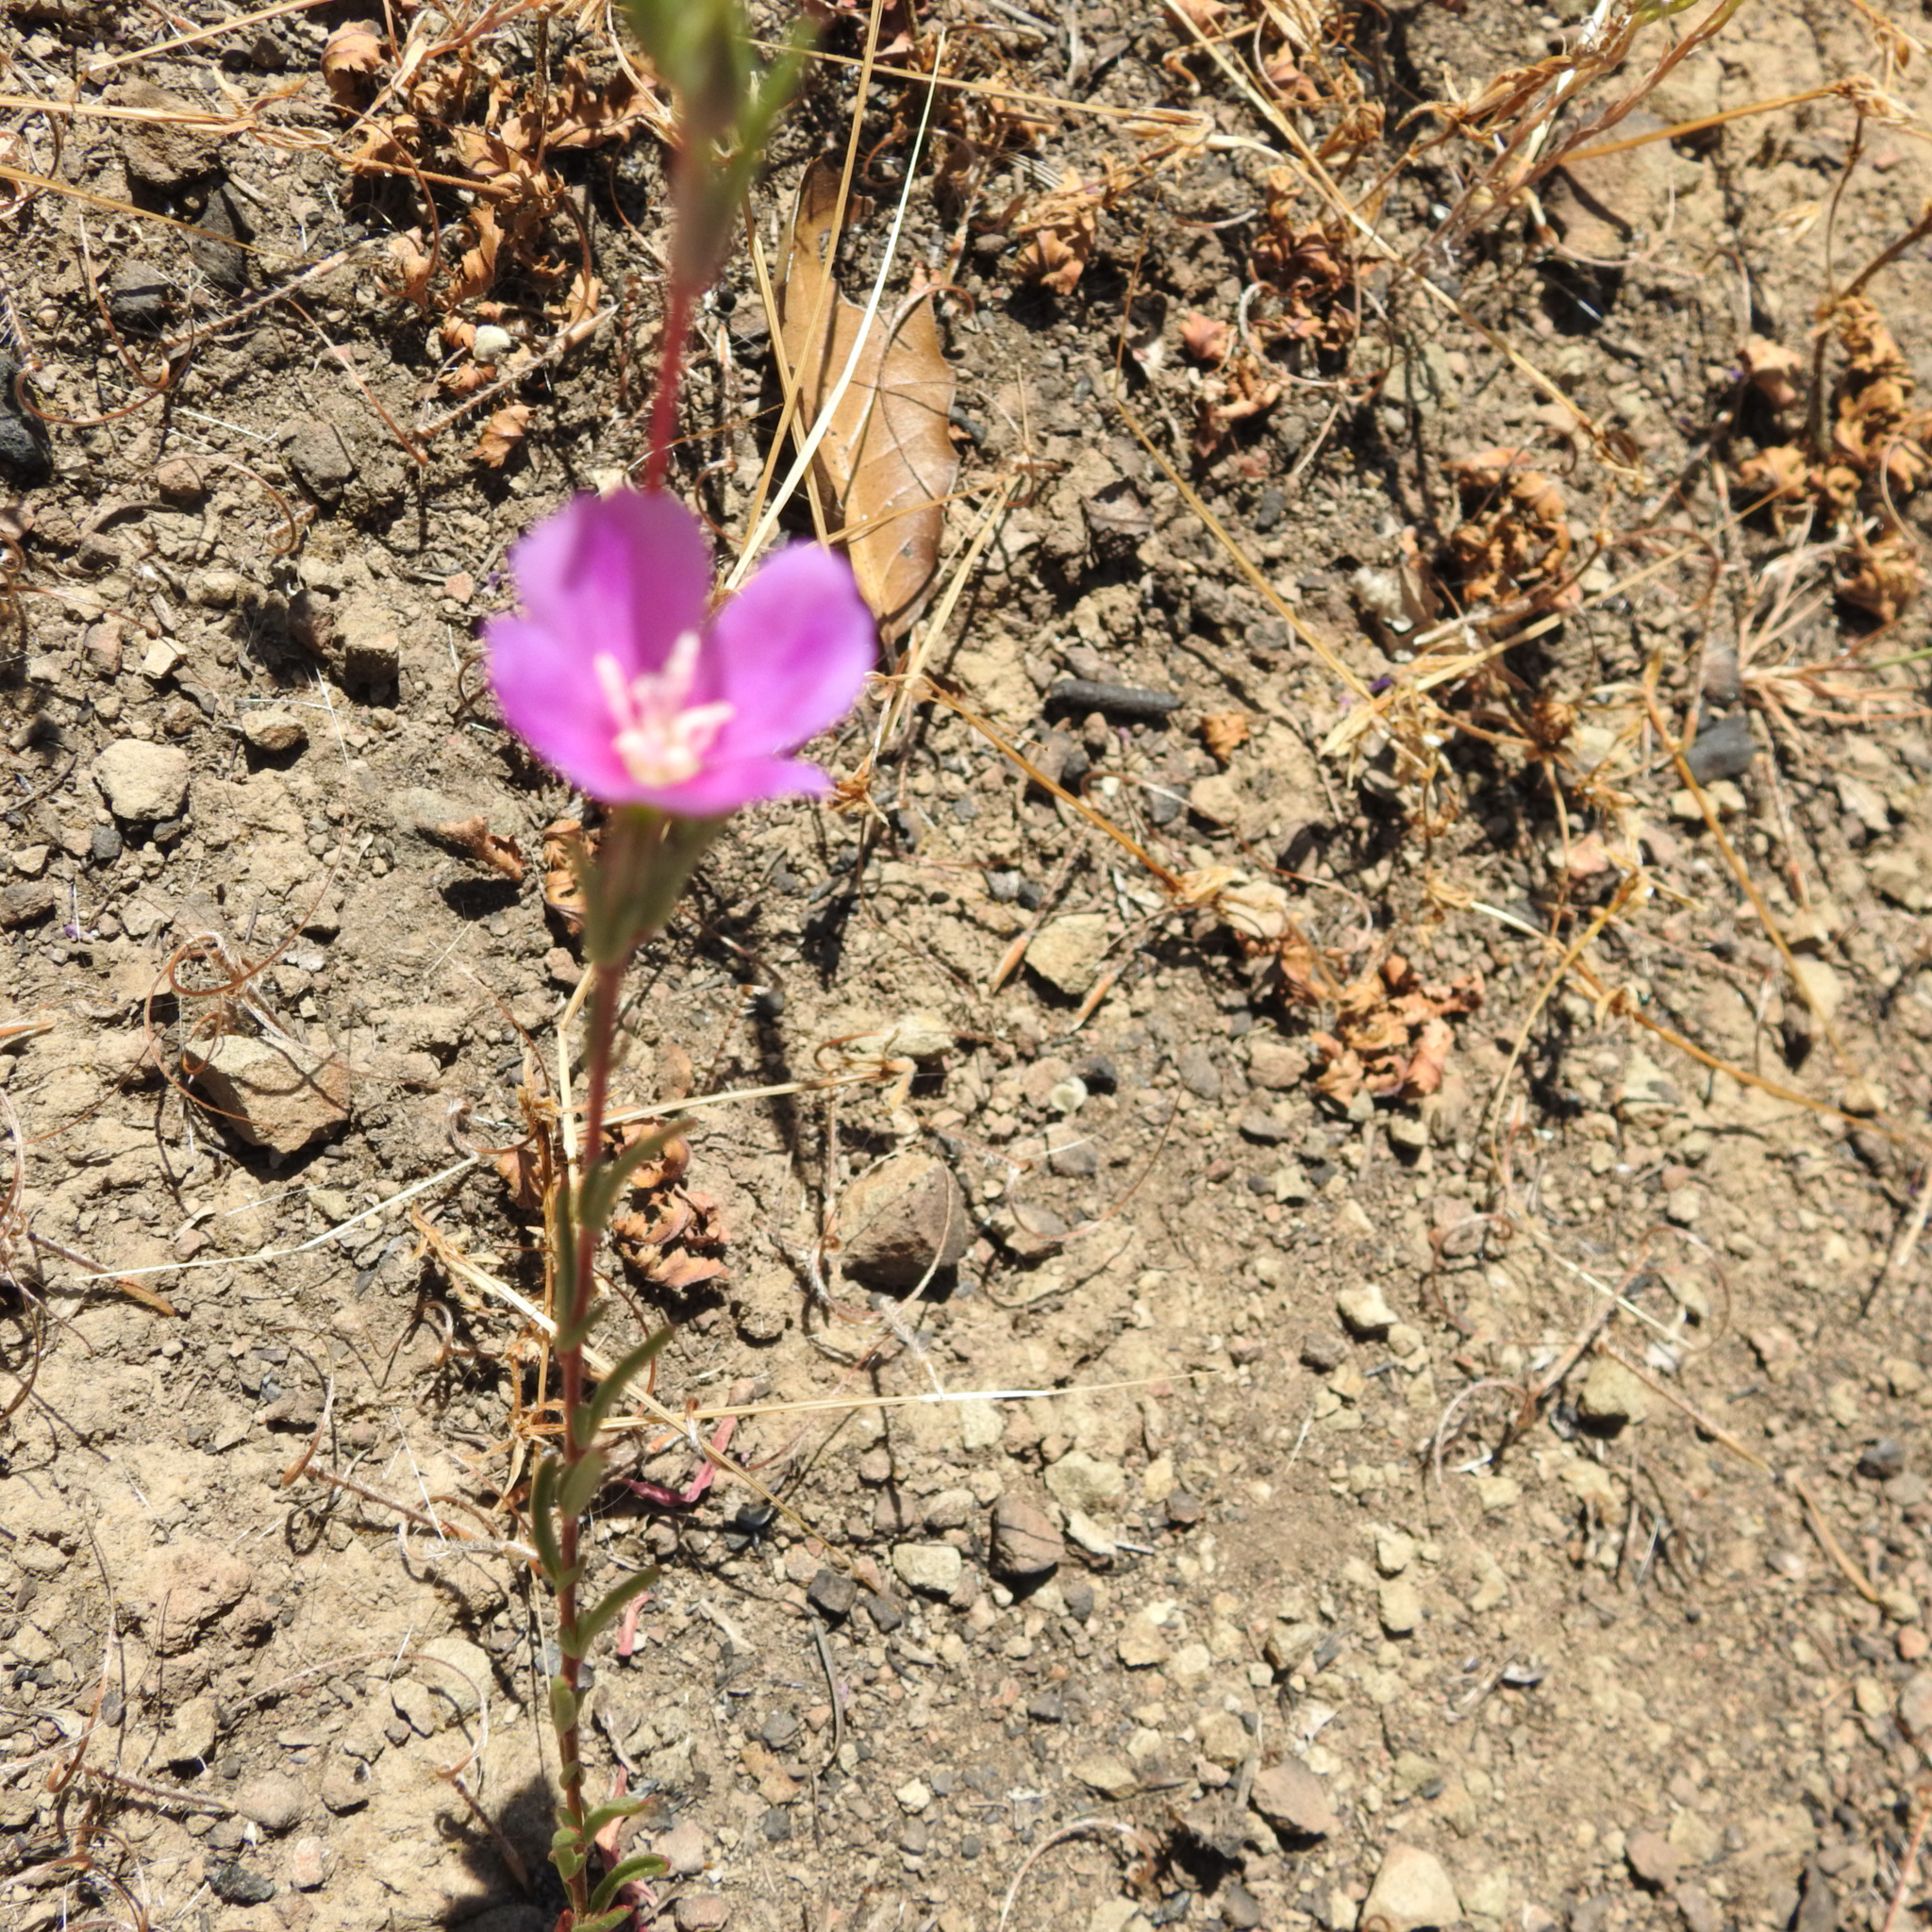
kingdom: Plantae
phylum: Tracheophyta
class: Magnoliopsida
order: Myrtales
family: Onagraceae
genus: Clarkia
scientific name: Clarkia purpurea
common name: Purple clarkia
